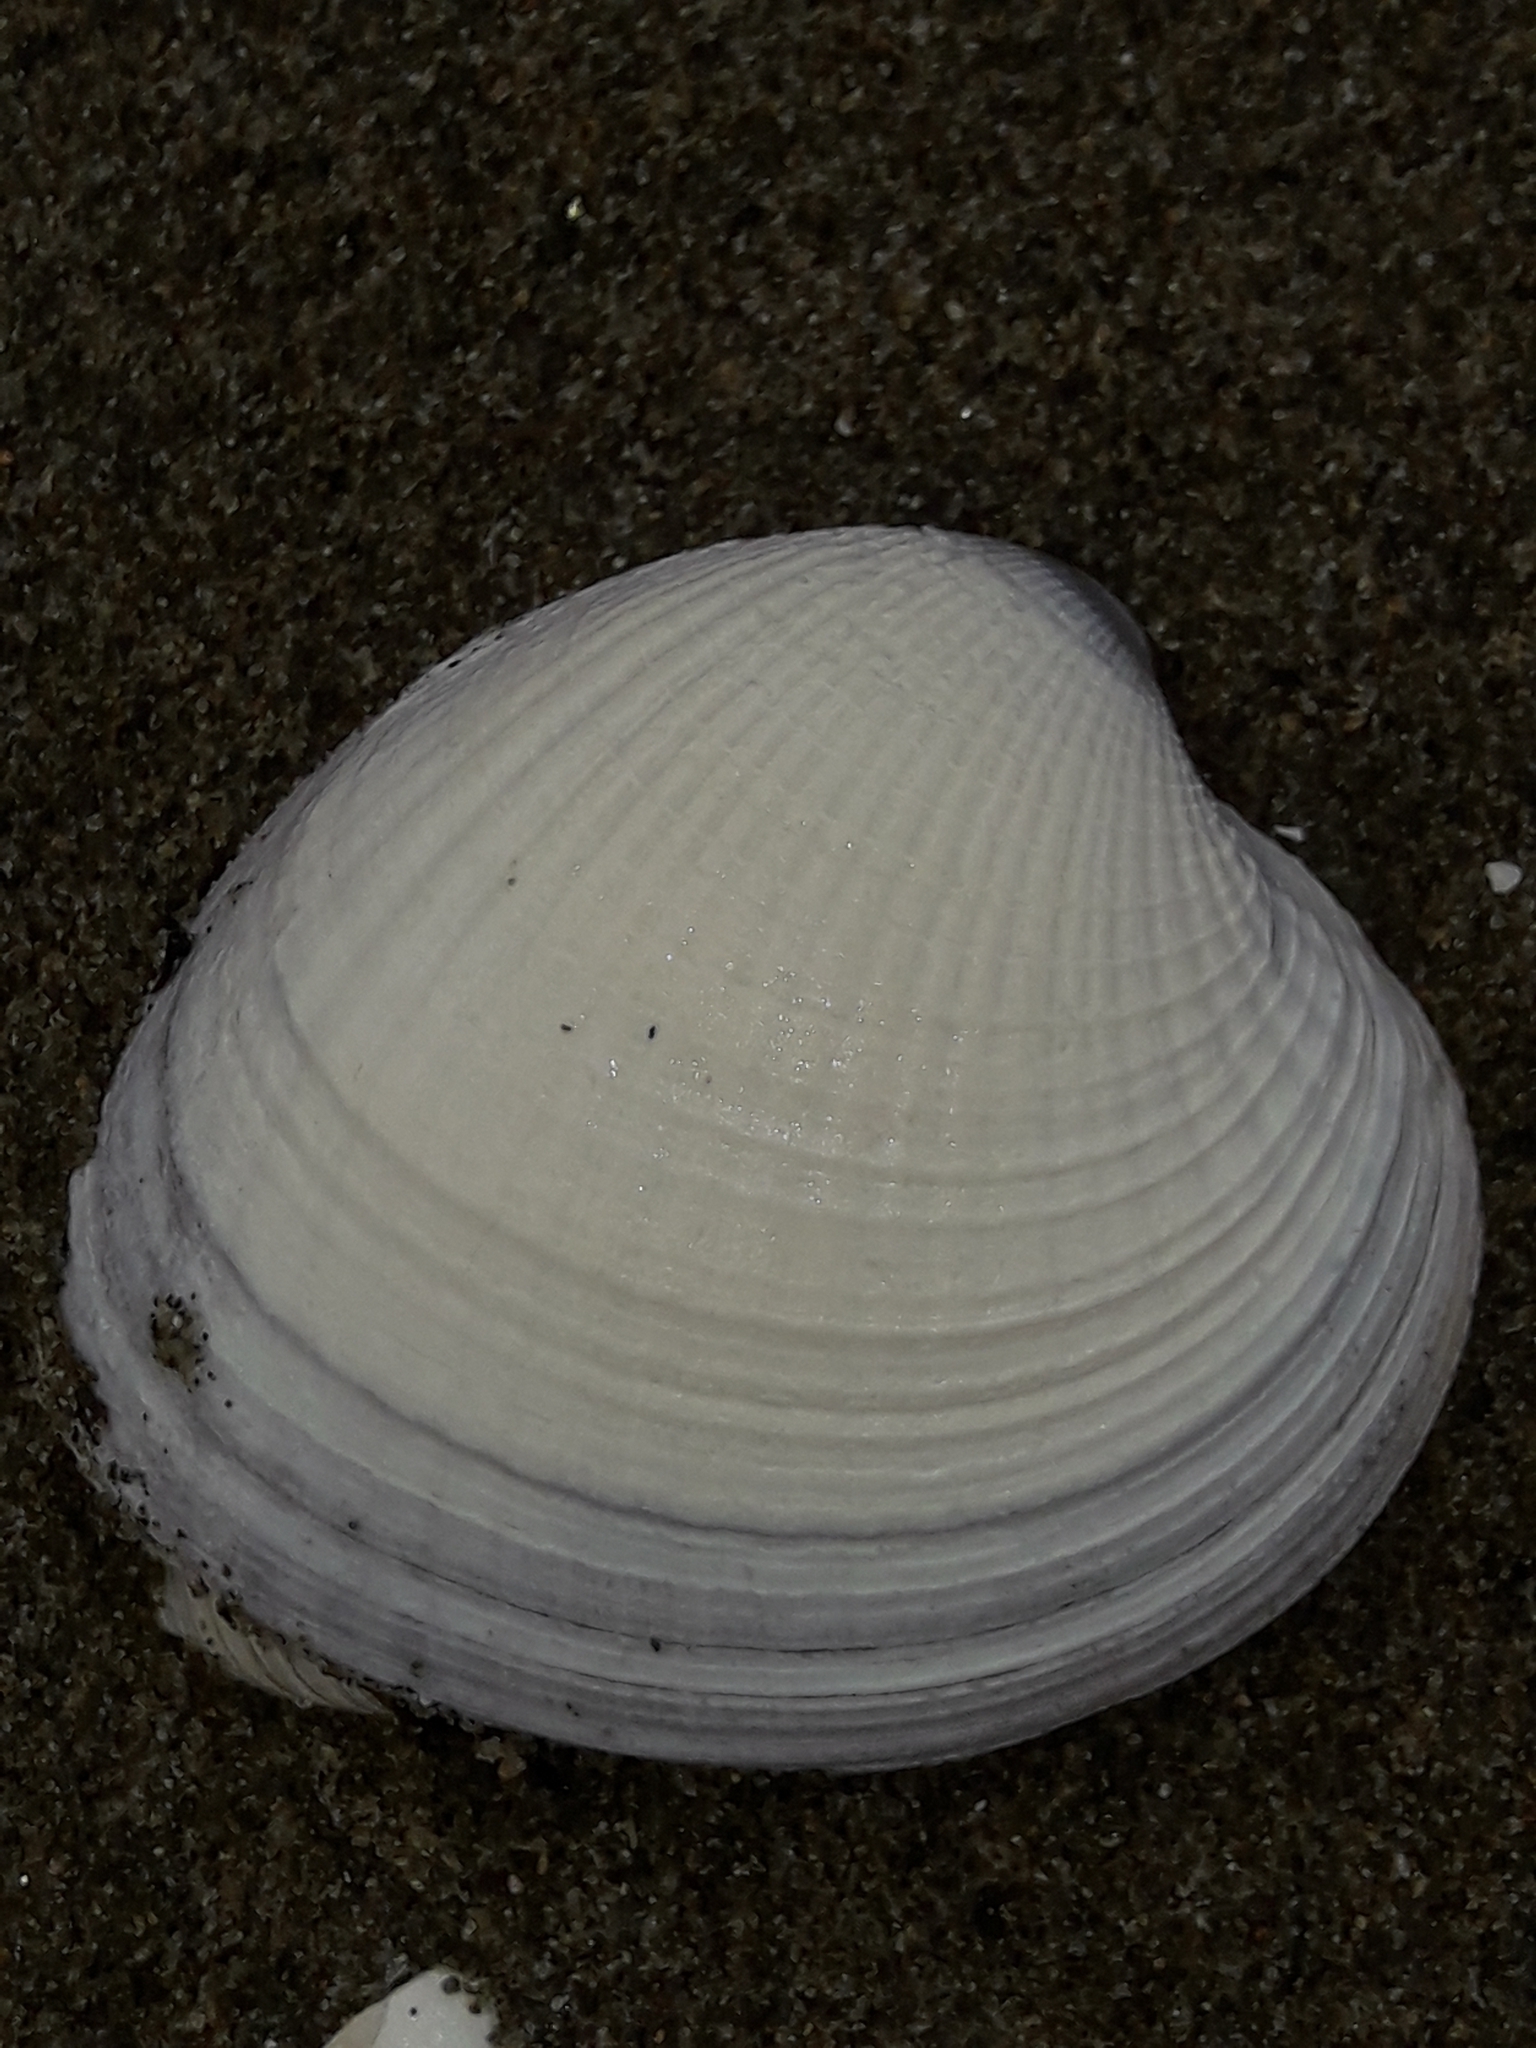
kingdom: Animalia
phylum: Mollusca
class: Bivalvia
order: Venerida
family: Veneridae
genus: Austrovenus
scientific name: Austrovenus stutchburyi
